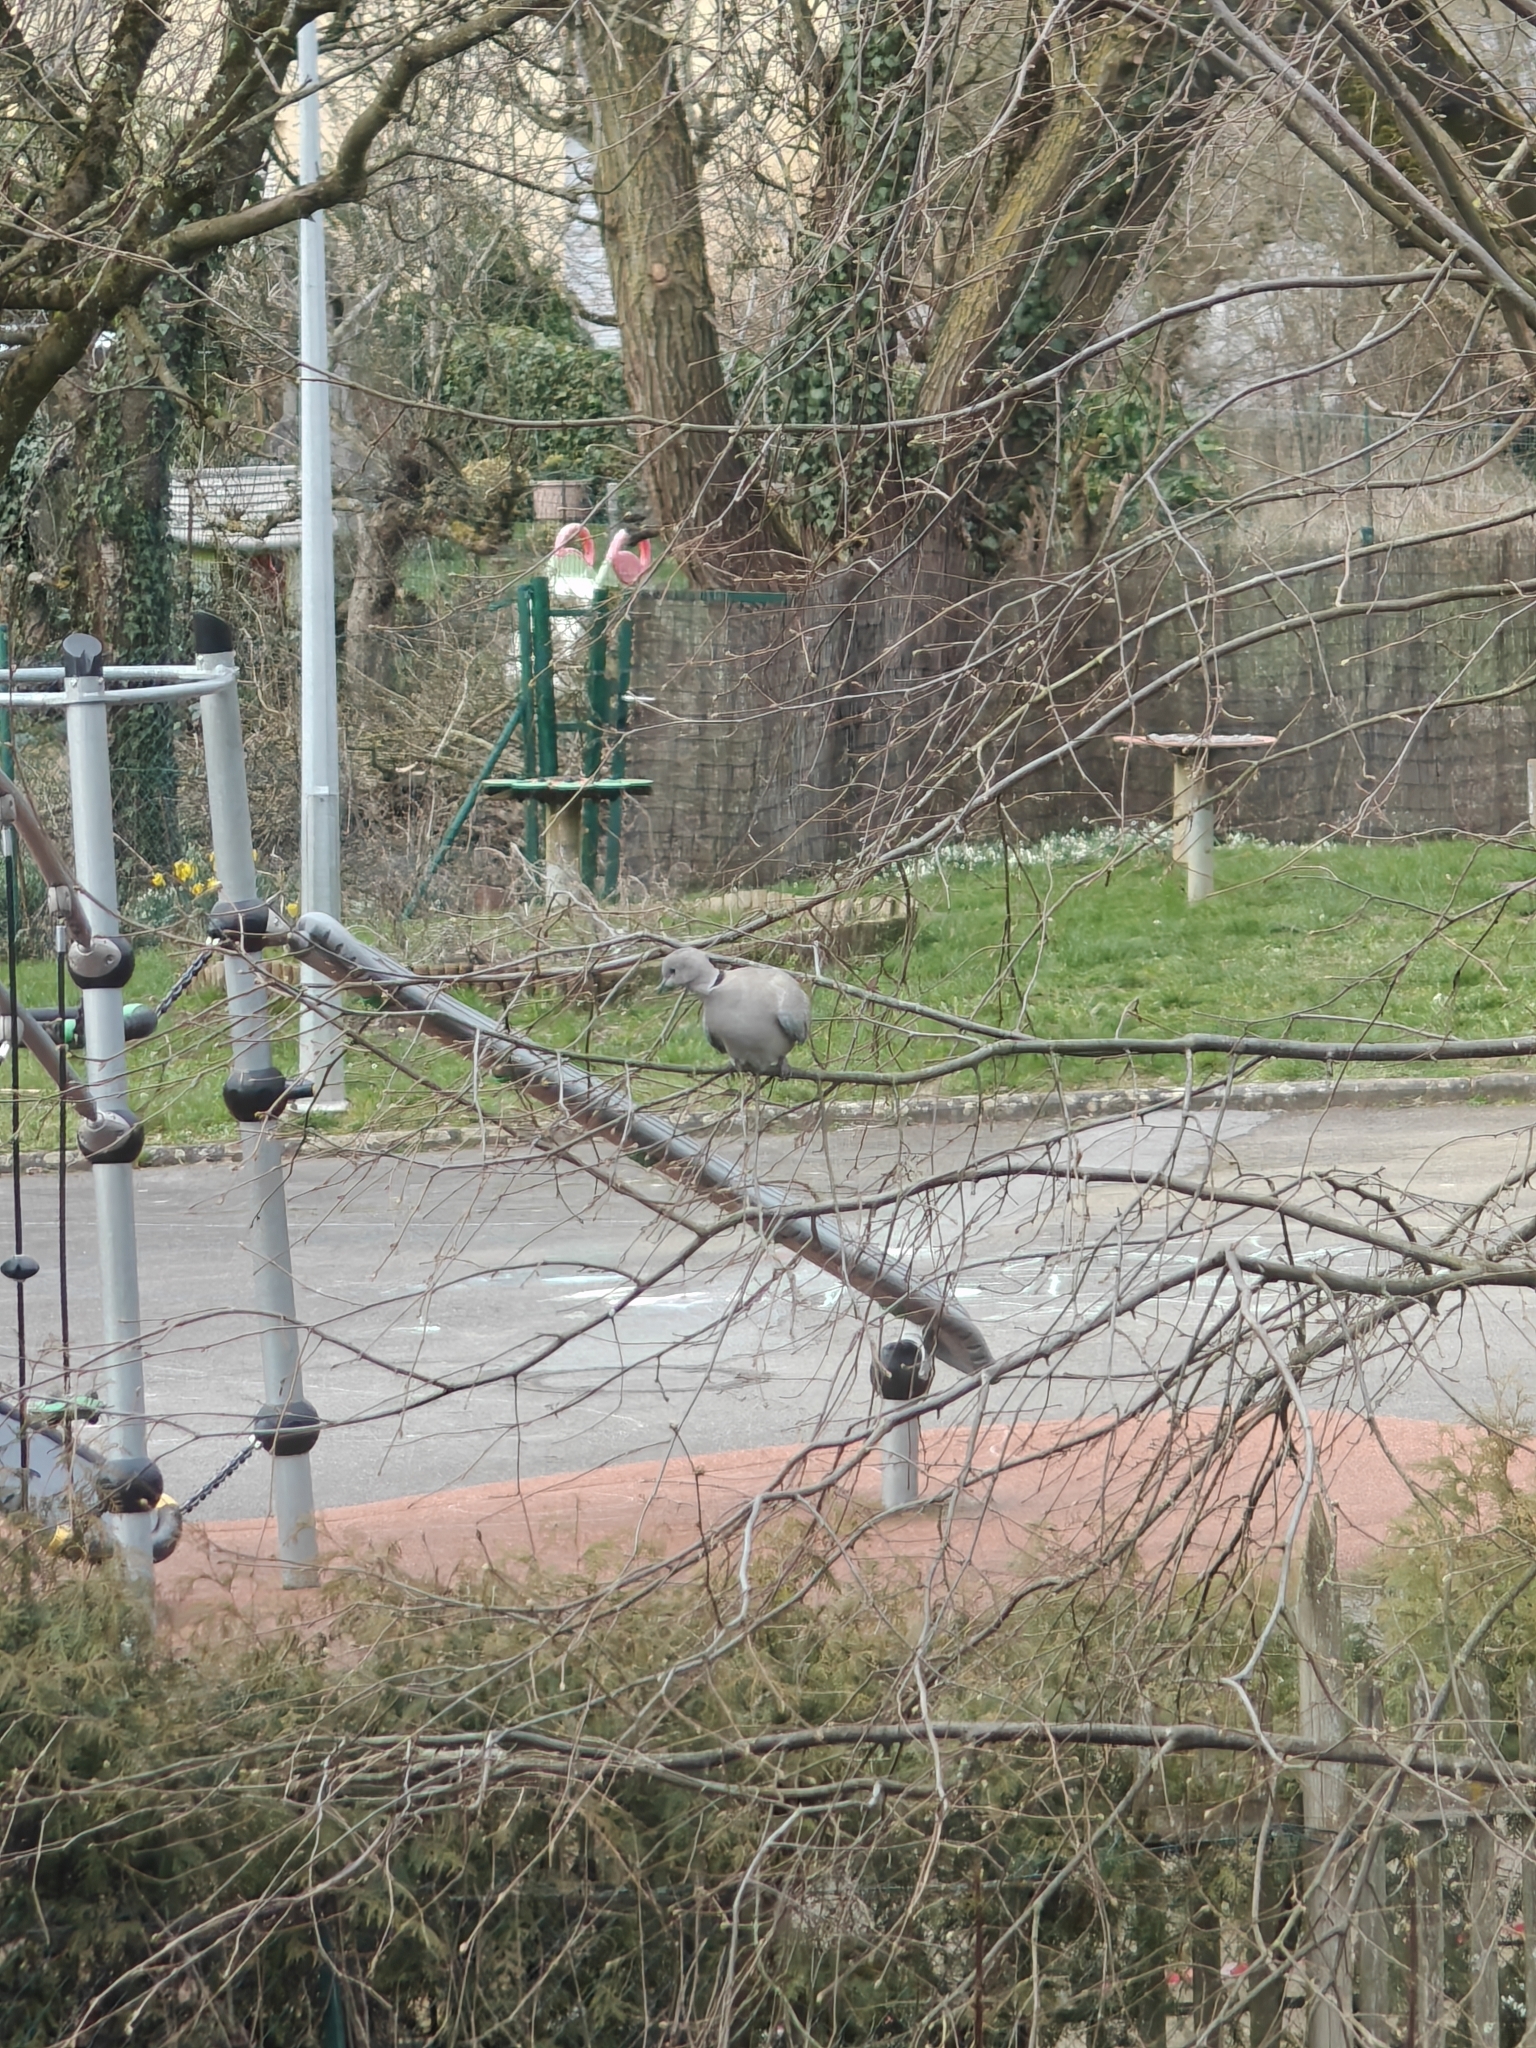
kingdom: Animalia
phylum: Chordata
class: Aves
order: Columbiformes
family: Columbidae
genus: Streptopelia
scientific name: Streptopelia decaocto
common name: Eurasian collared dove
